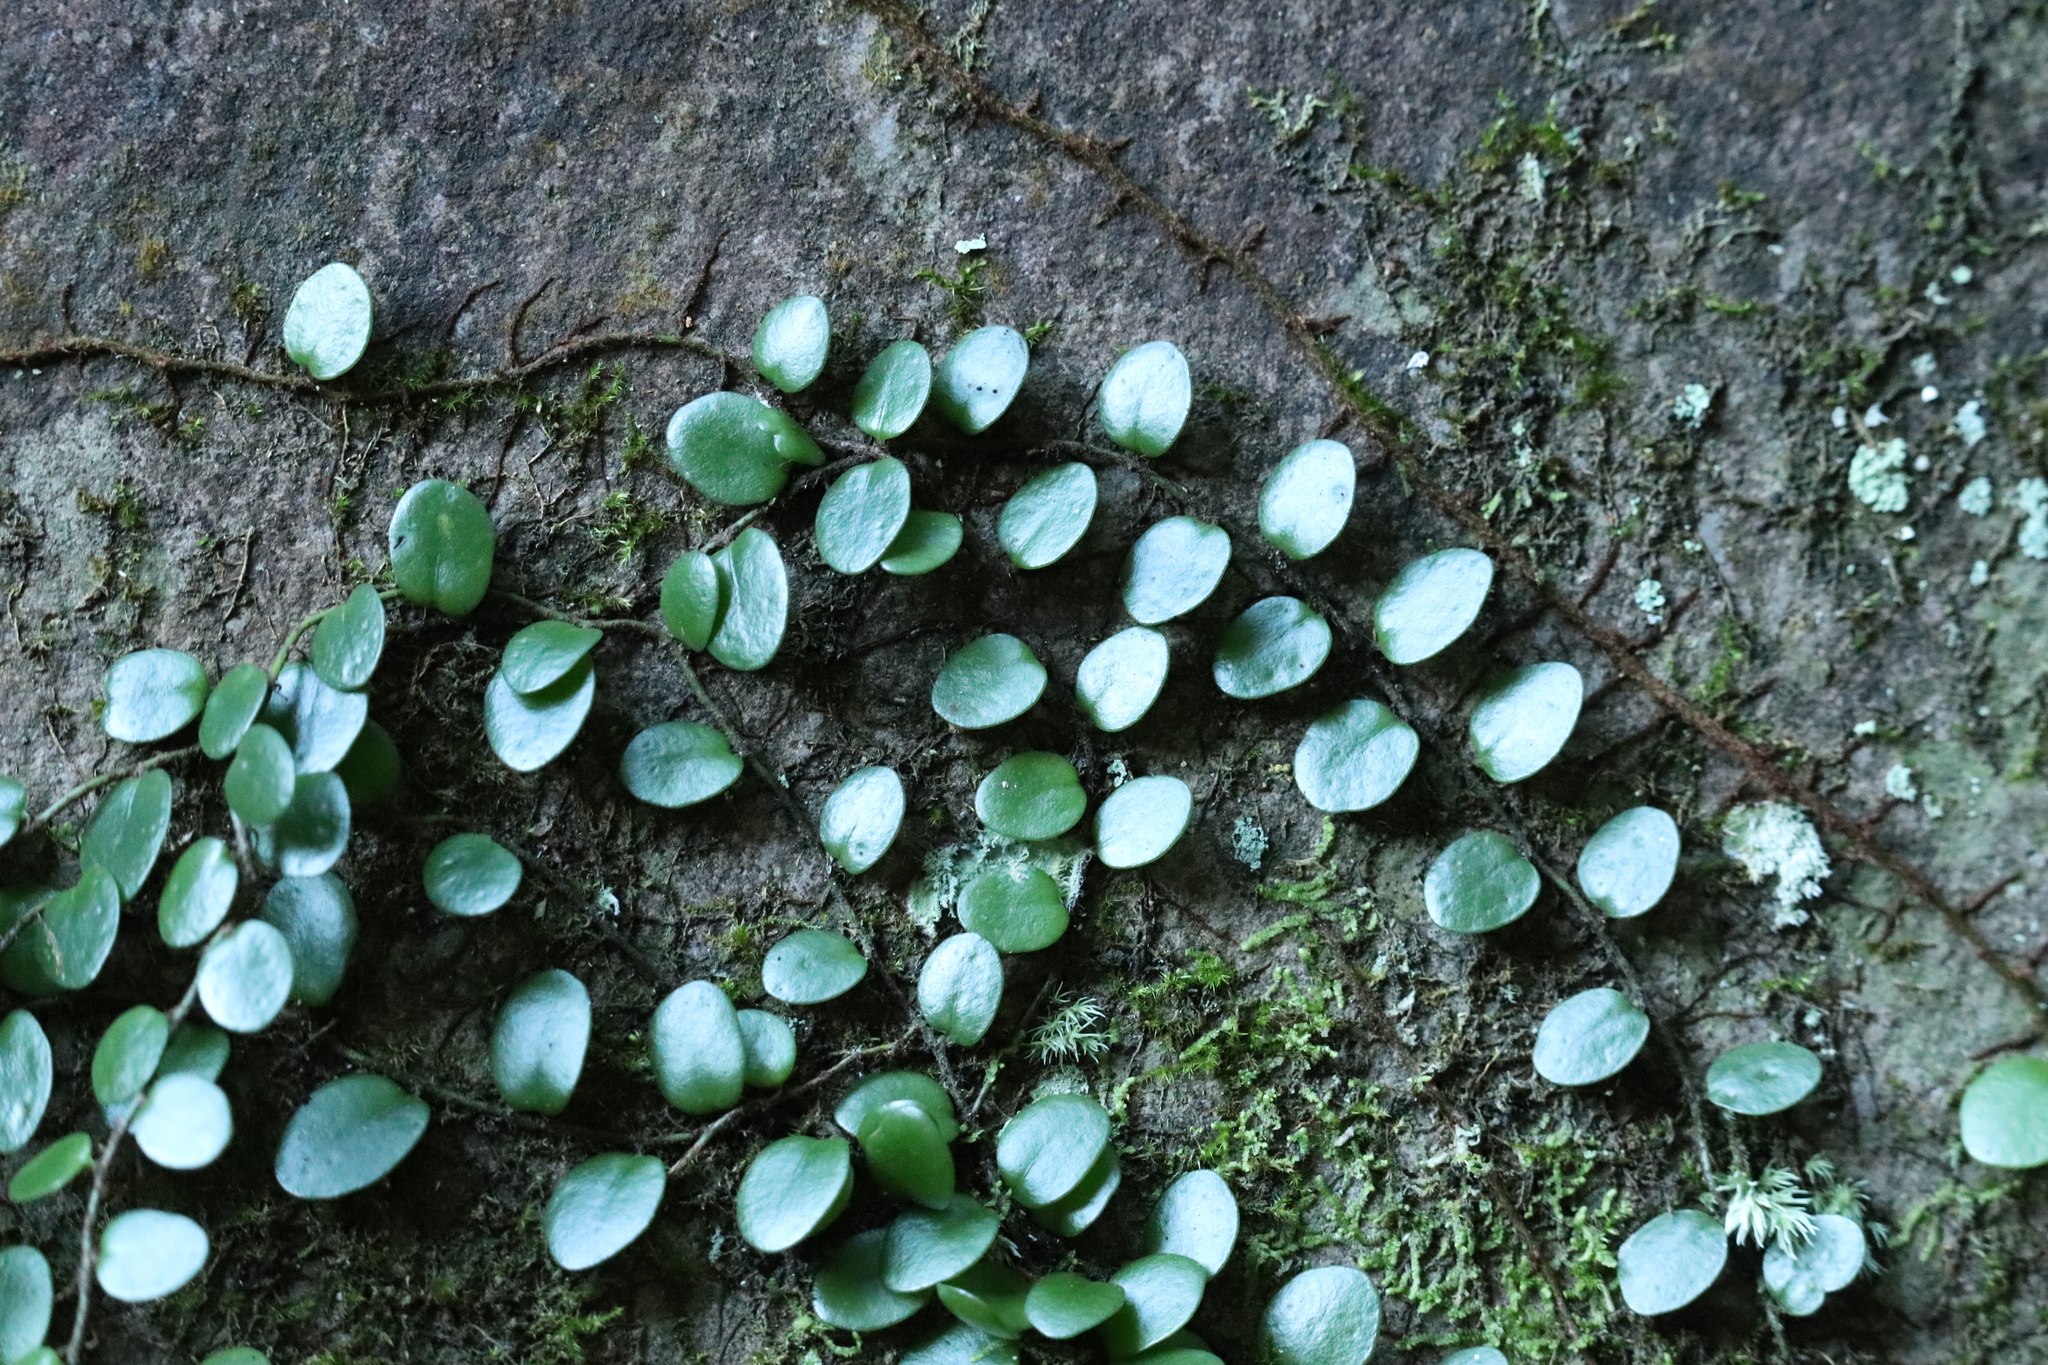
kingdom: Plantae
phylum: Tracheophyta
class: Polypodiopsida
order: Polypodiales
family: Polypodiaceae
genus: Lepisorus
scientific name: Lepisorus microphyllus
